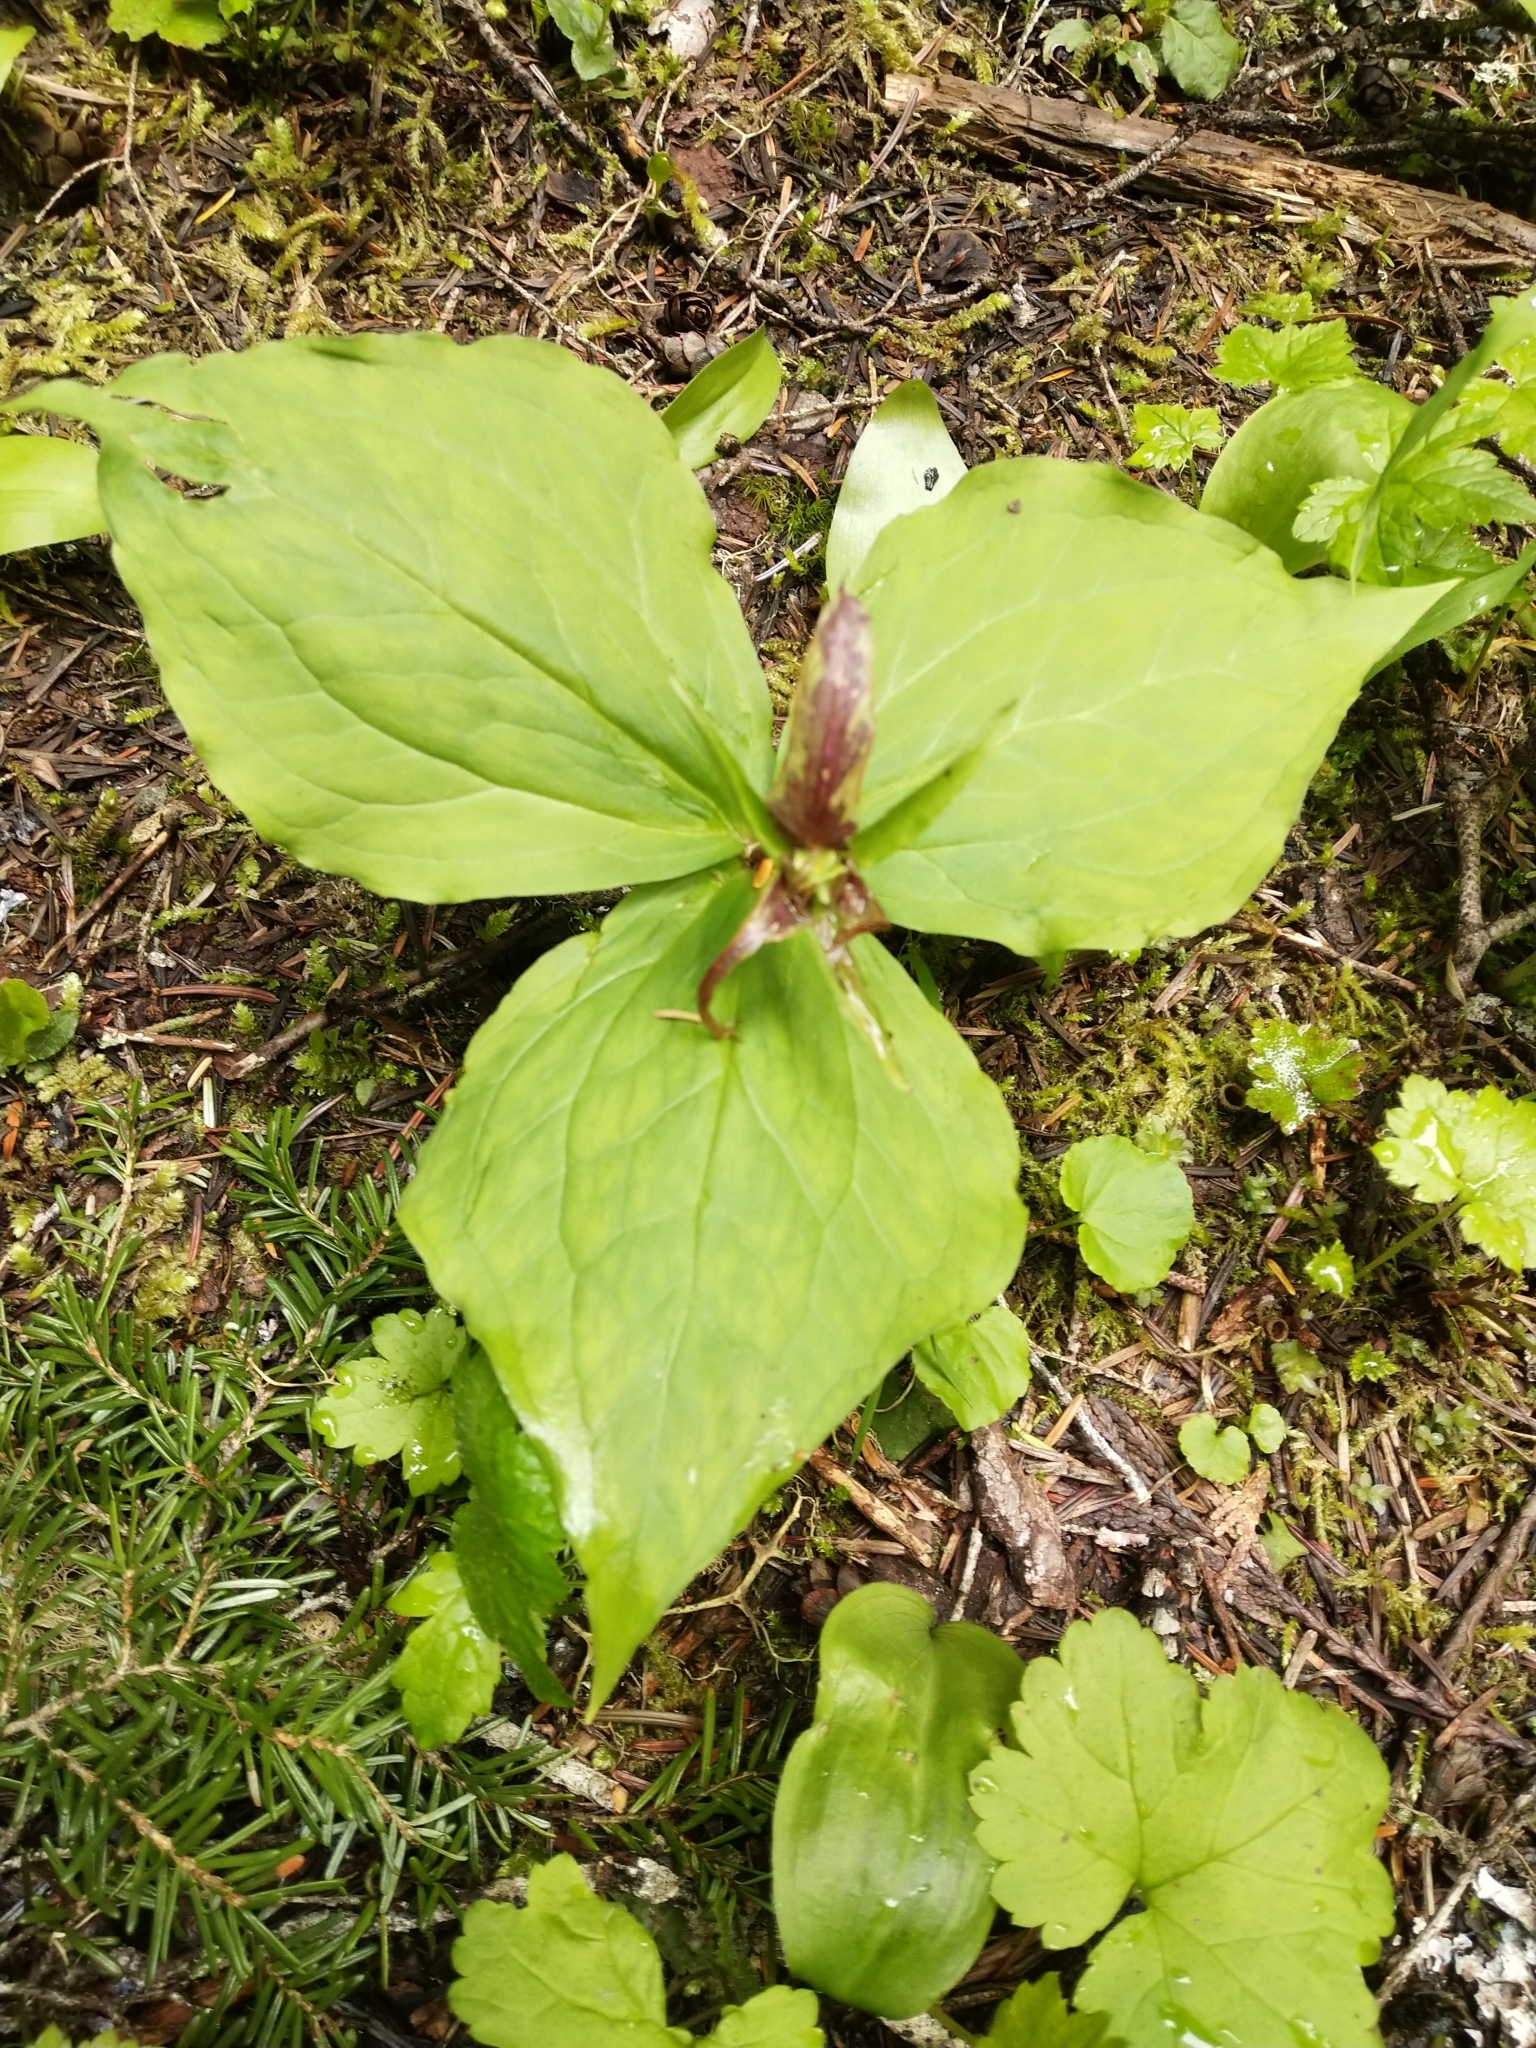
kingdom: Plantae
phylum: Tracheophyta
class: Liliopsida
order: Liliales
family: Melanthiaceae
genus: Trillium
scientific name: Trillium ovatum
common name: Pacific trillium
